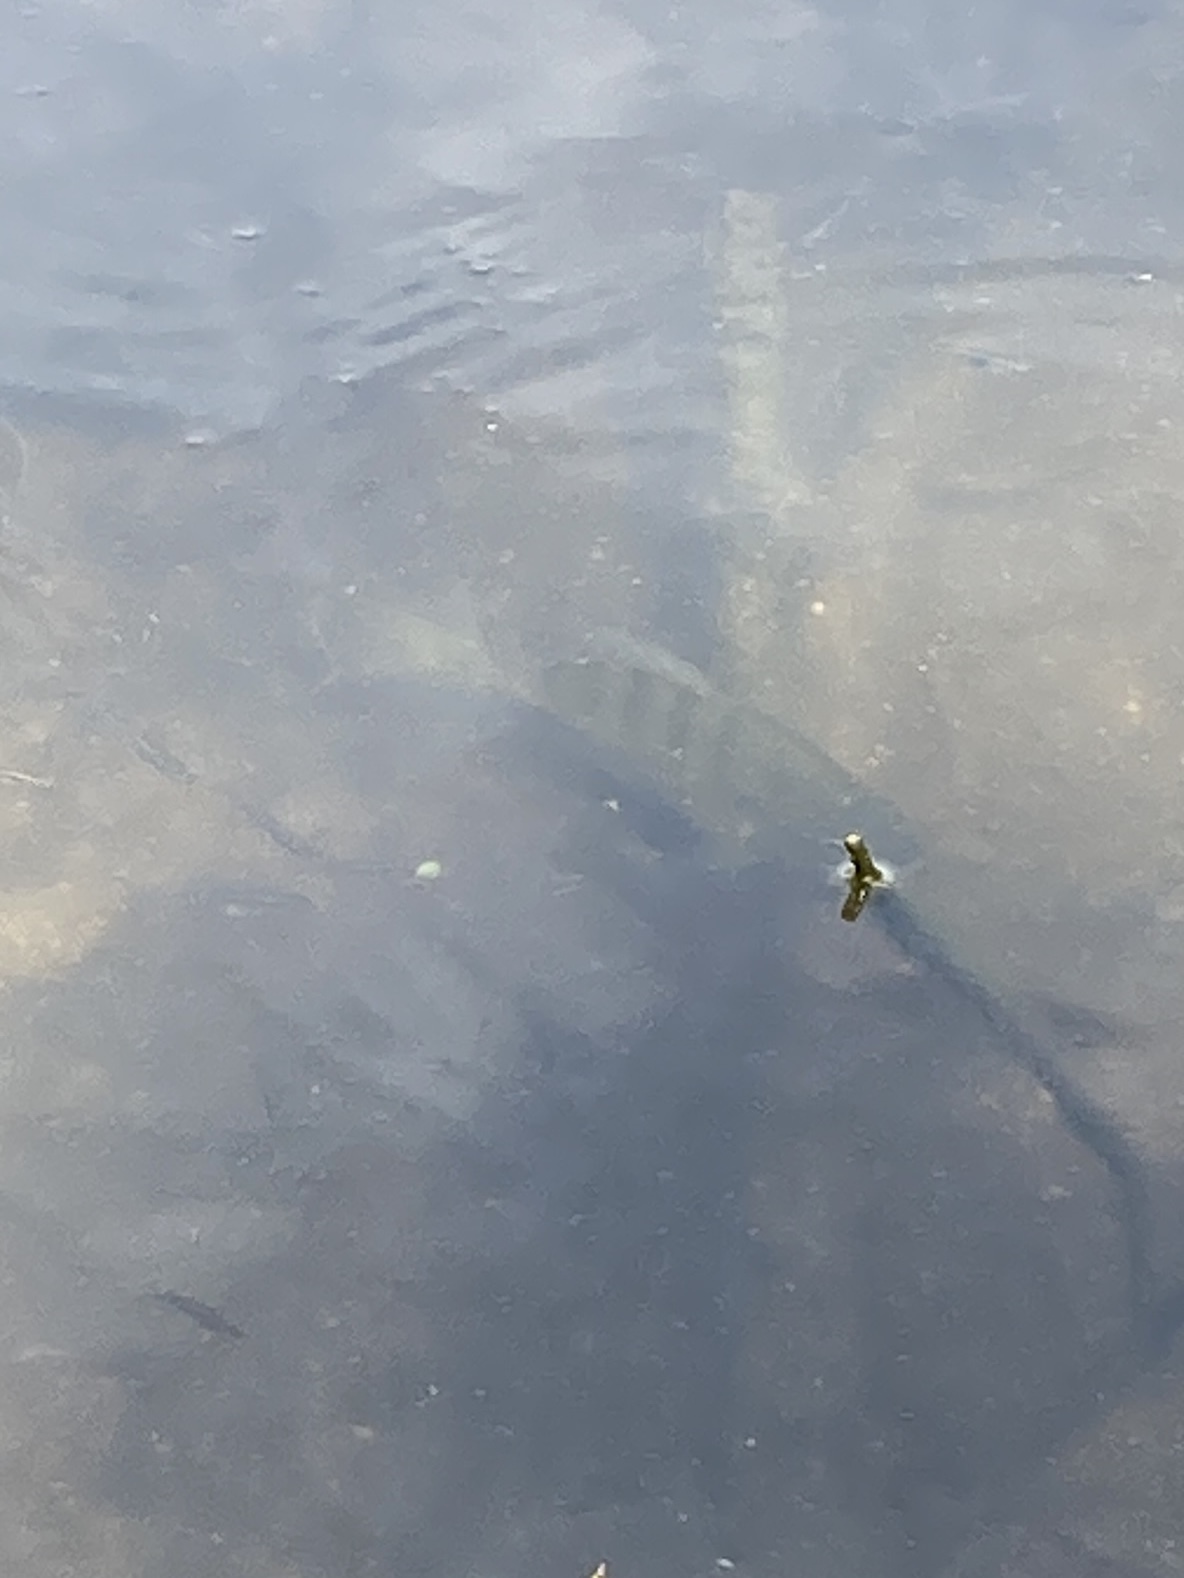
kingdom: Animalia
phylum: Chordata
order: Perciformes
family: Centrarchidae
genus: Lepomis
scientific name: Lepomis macrochirus
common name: Bluegill
